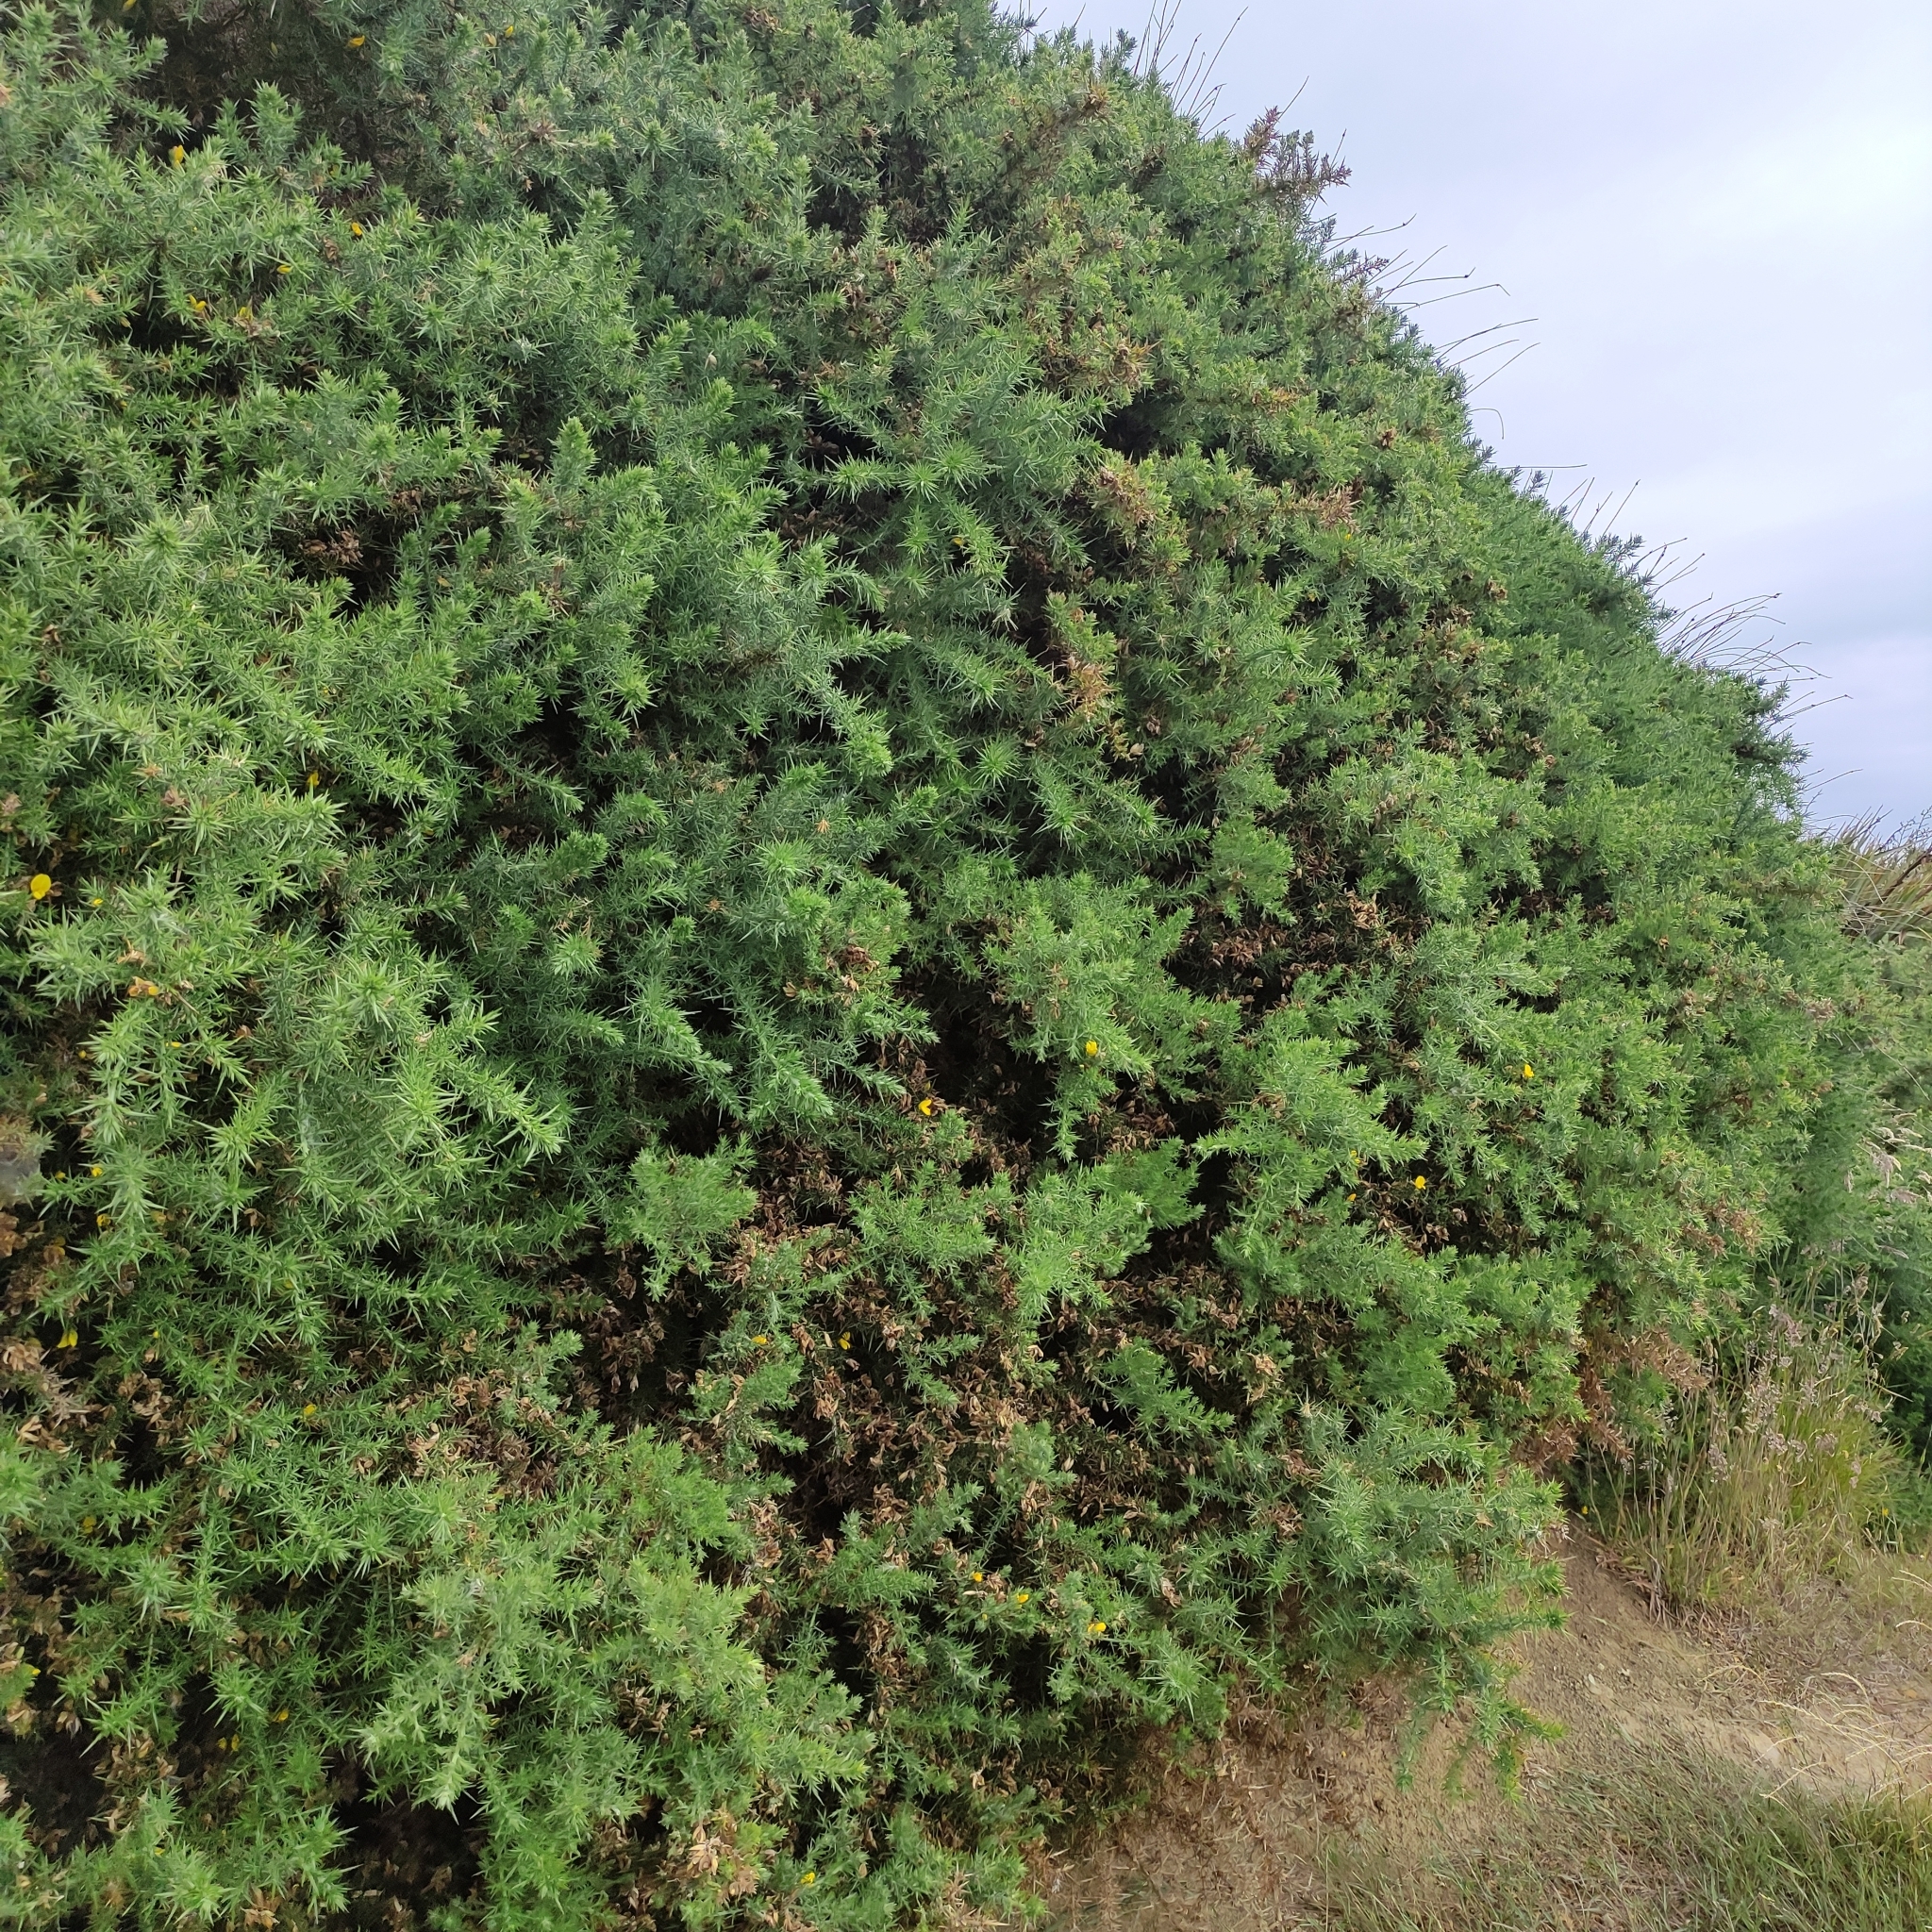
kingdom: Plantae
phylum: Tracheophyta
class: Magnoliopsida
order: Fabales
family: Fabaceae
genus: Ulex
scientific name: Ulex europaeus
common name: Common gorse
